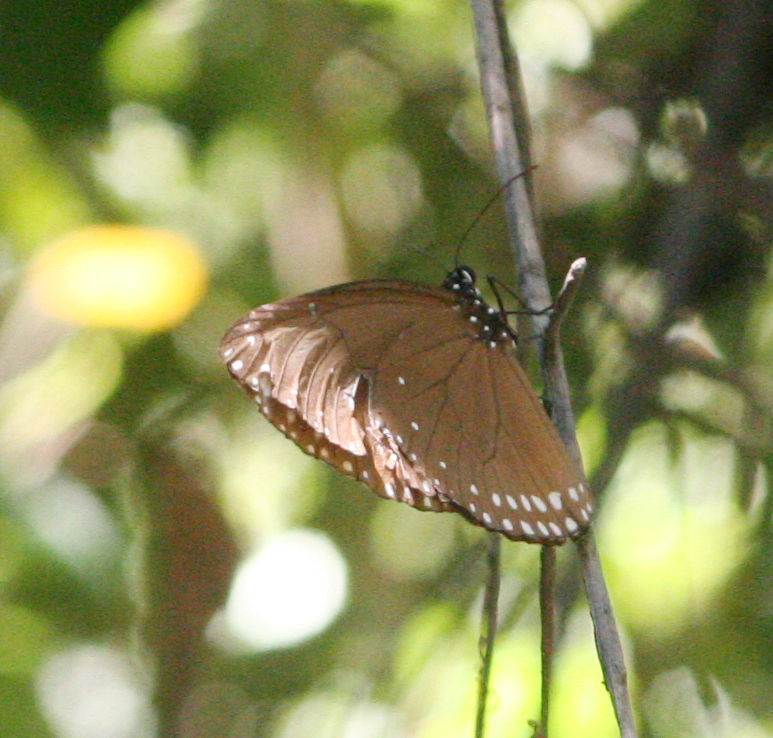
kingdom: Animalia
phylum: Arthropoda
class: Insecta
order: Lepidoptera
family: Nymphalidae
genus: Euploea
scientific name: Euploea klugii
